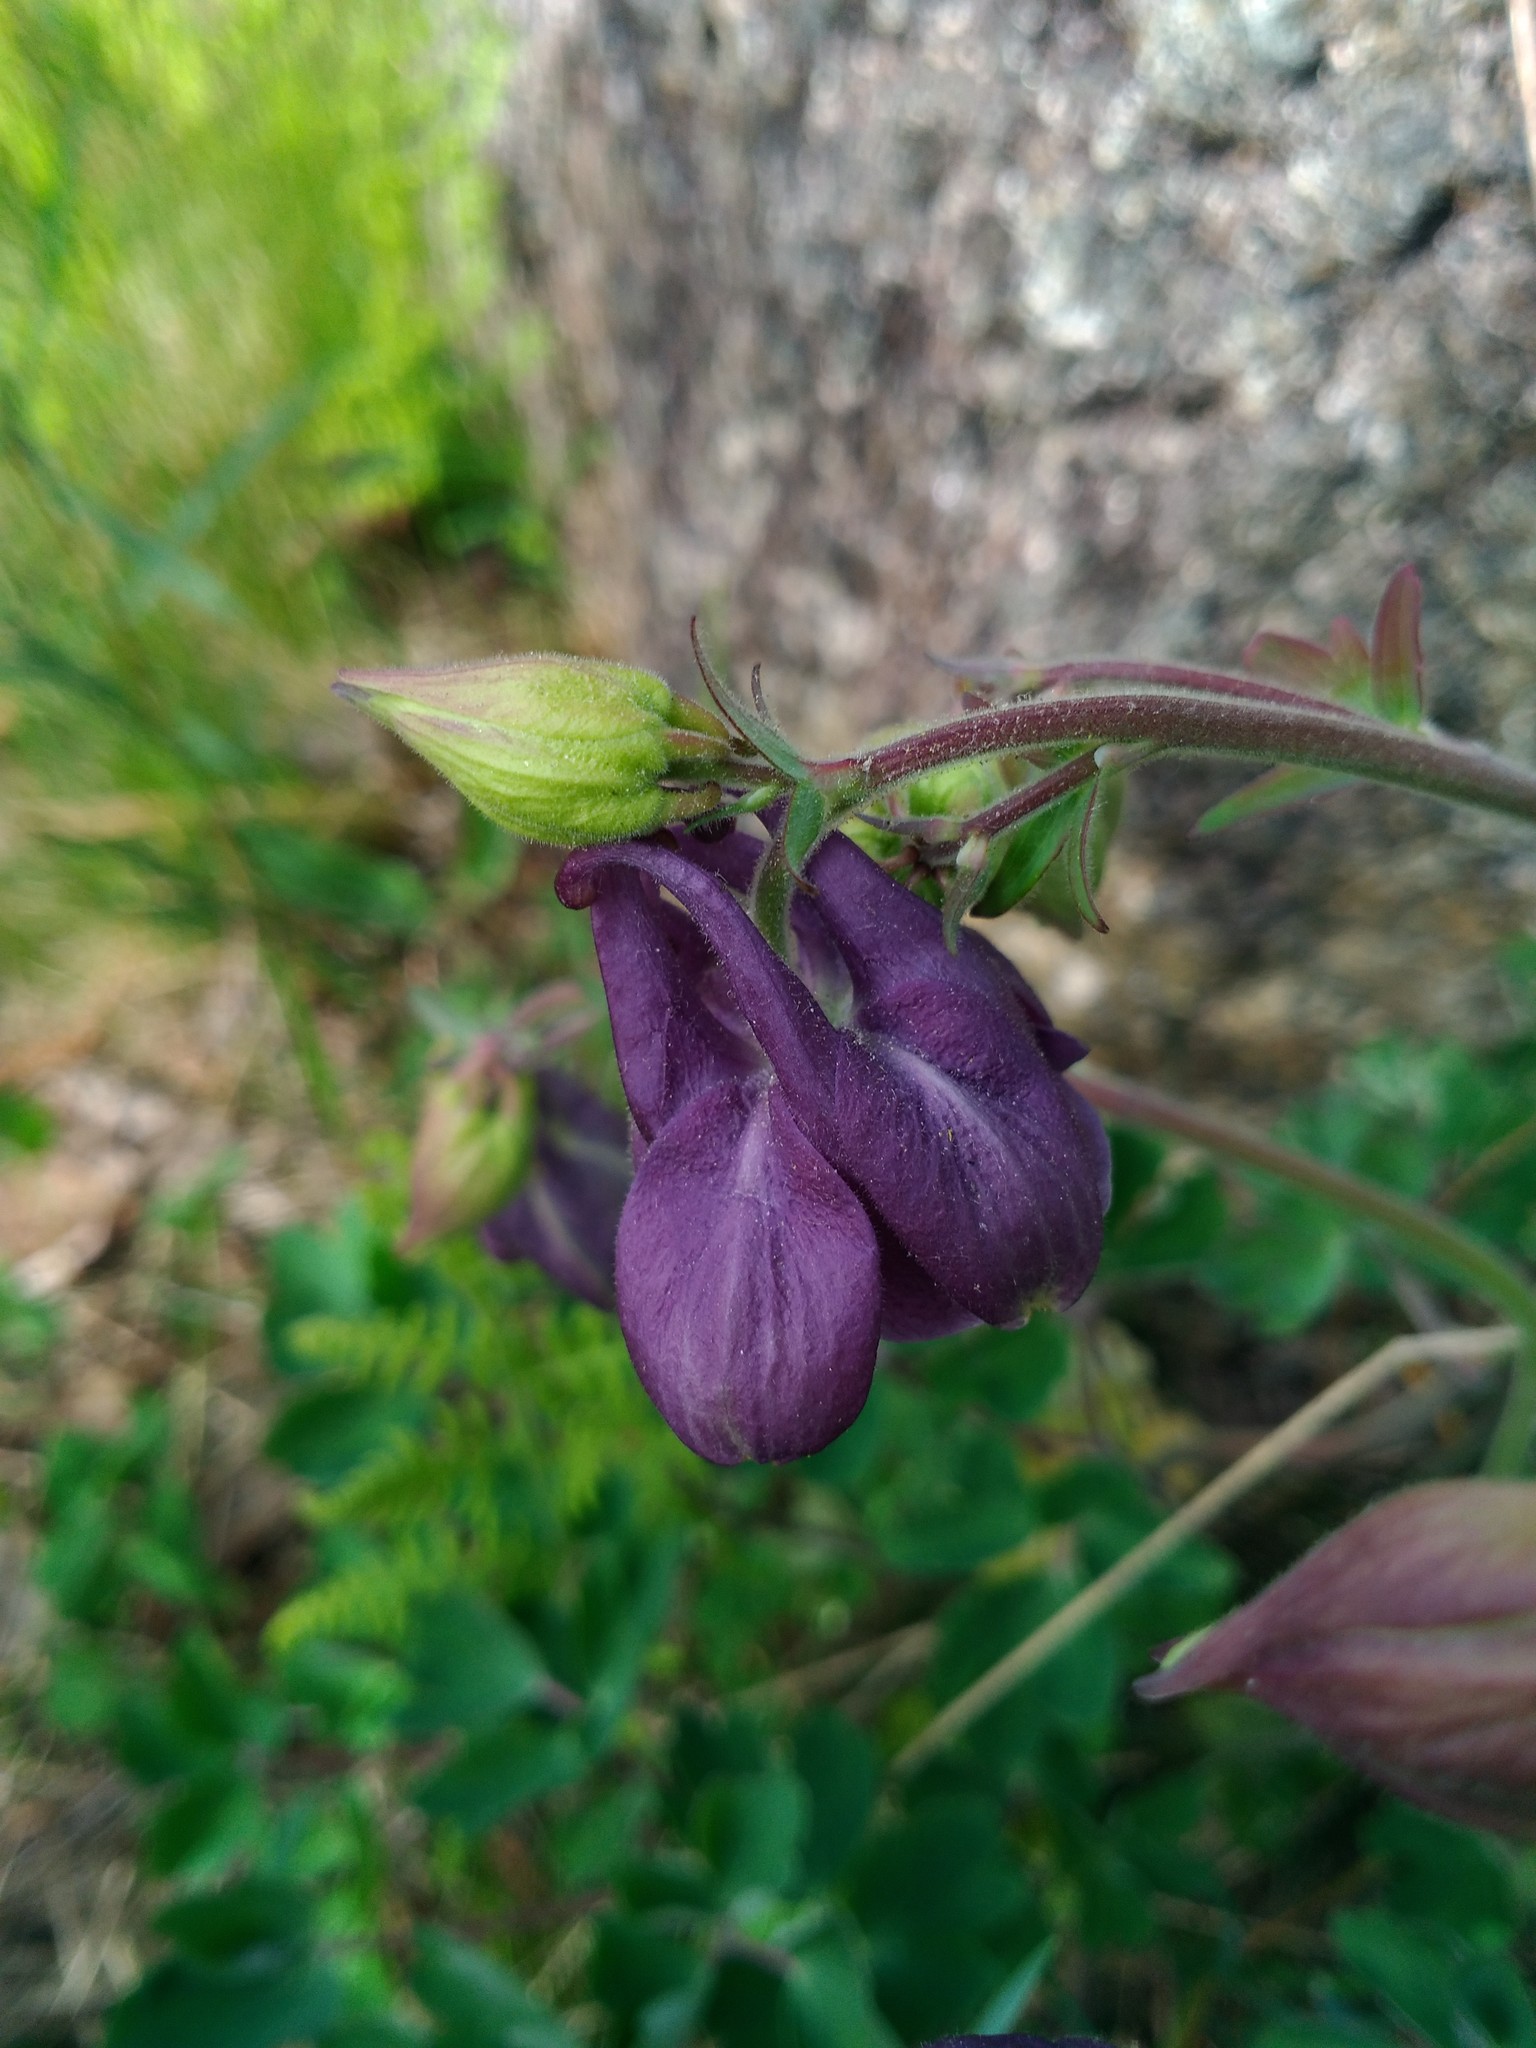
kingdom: Plantae
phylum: Tracheophyta
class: Magnoliopsida
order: Ranunculales
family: Ranunculaceae
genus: Aquilegia
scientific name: Aquilegia vulgaris
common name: Columbine
